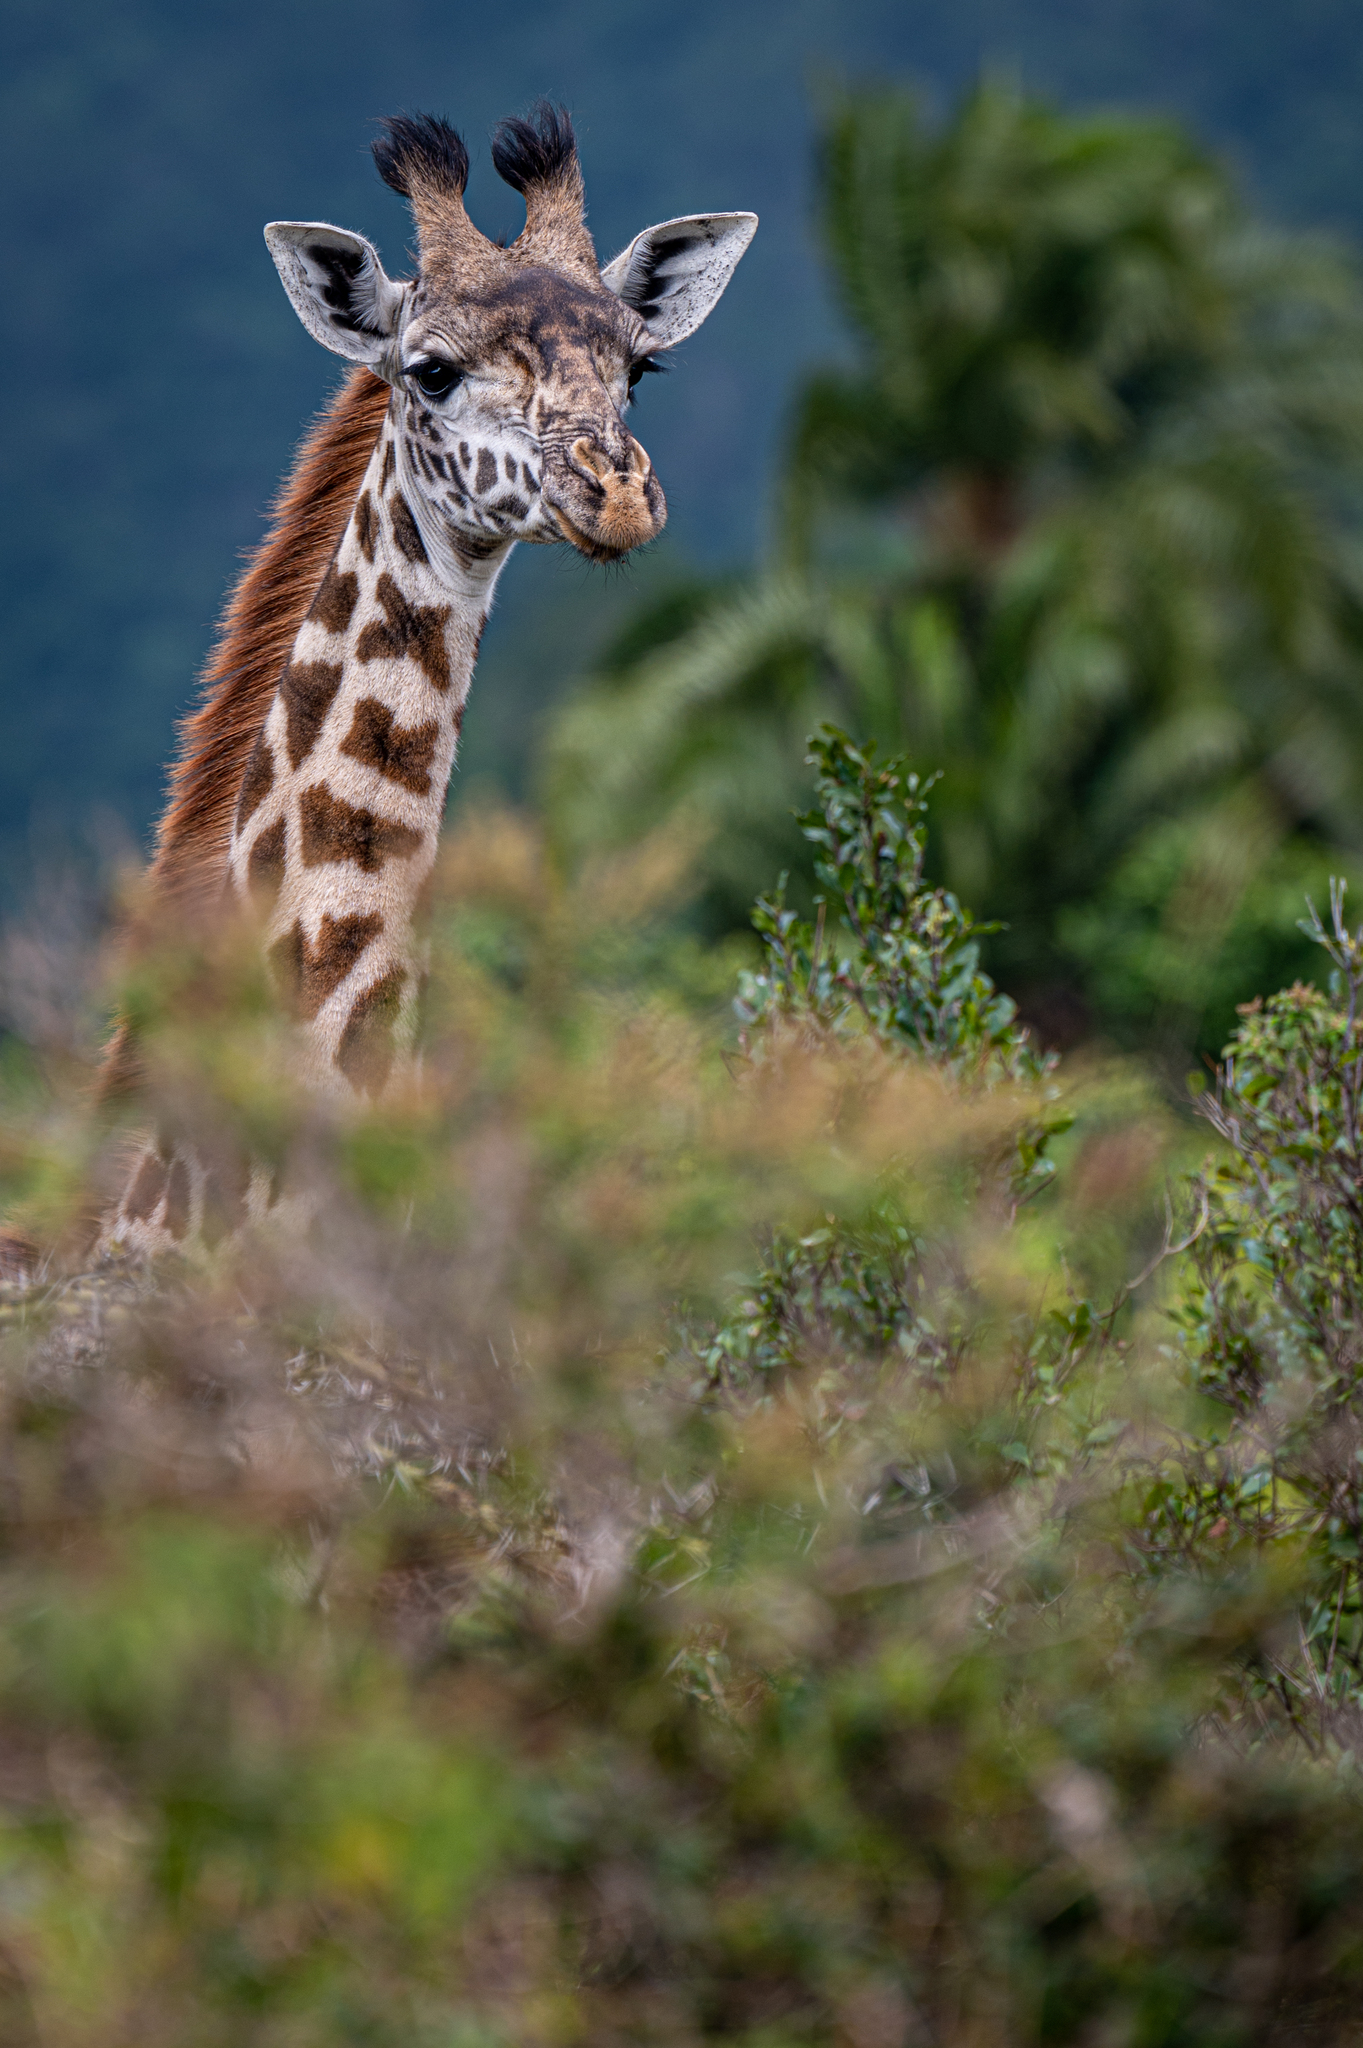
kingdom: Animalia
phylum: Chordata
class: Mammalia
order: Artiodactyla
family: Giraffidae
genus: Giraffa
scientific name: Giraffa tippelskirchi
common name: Masai giraffe
